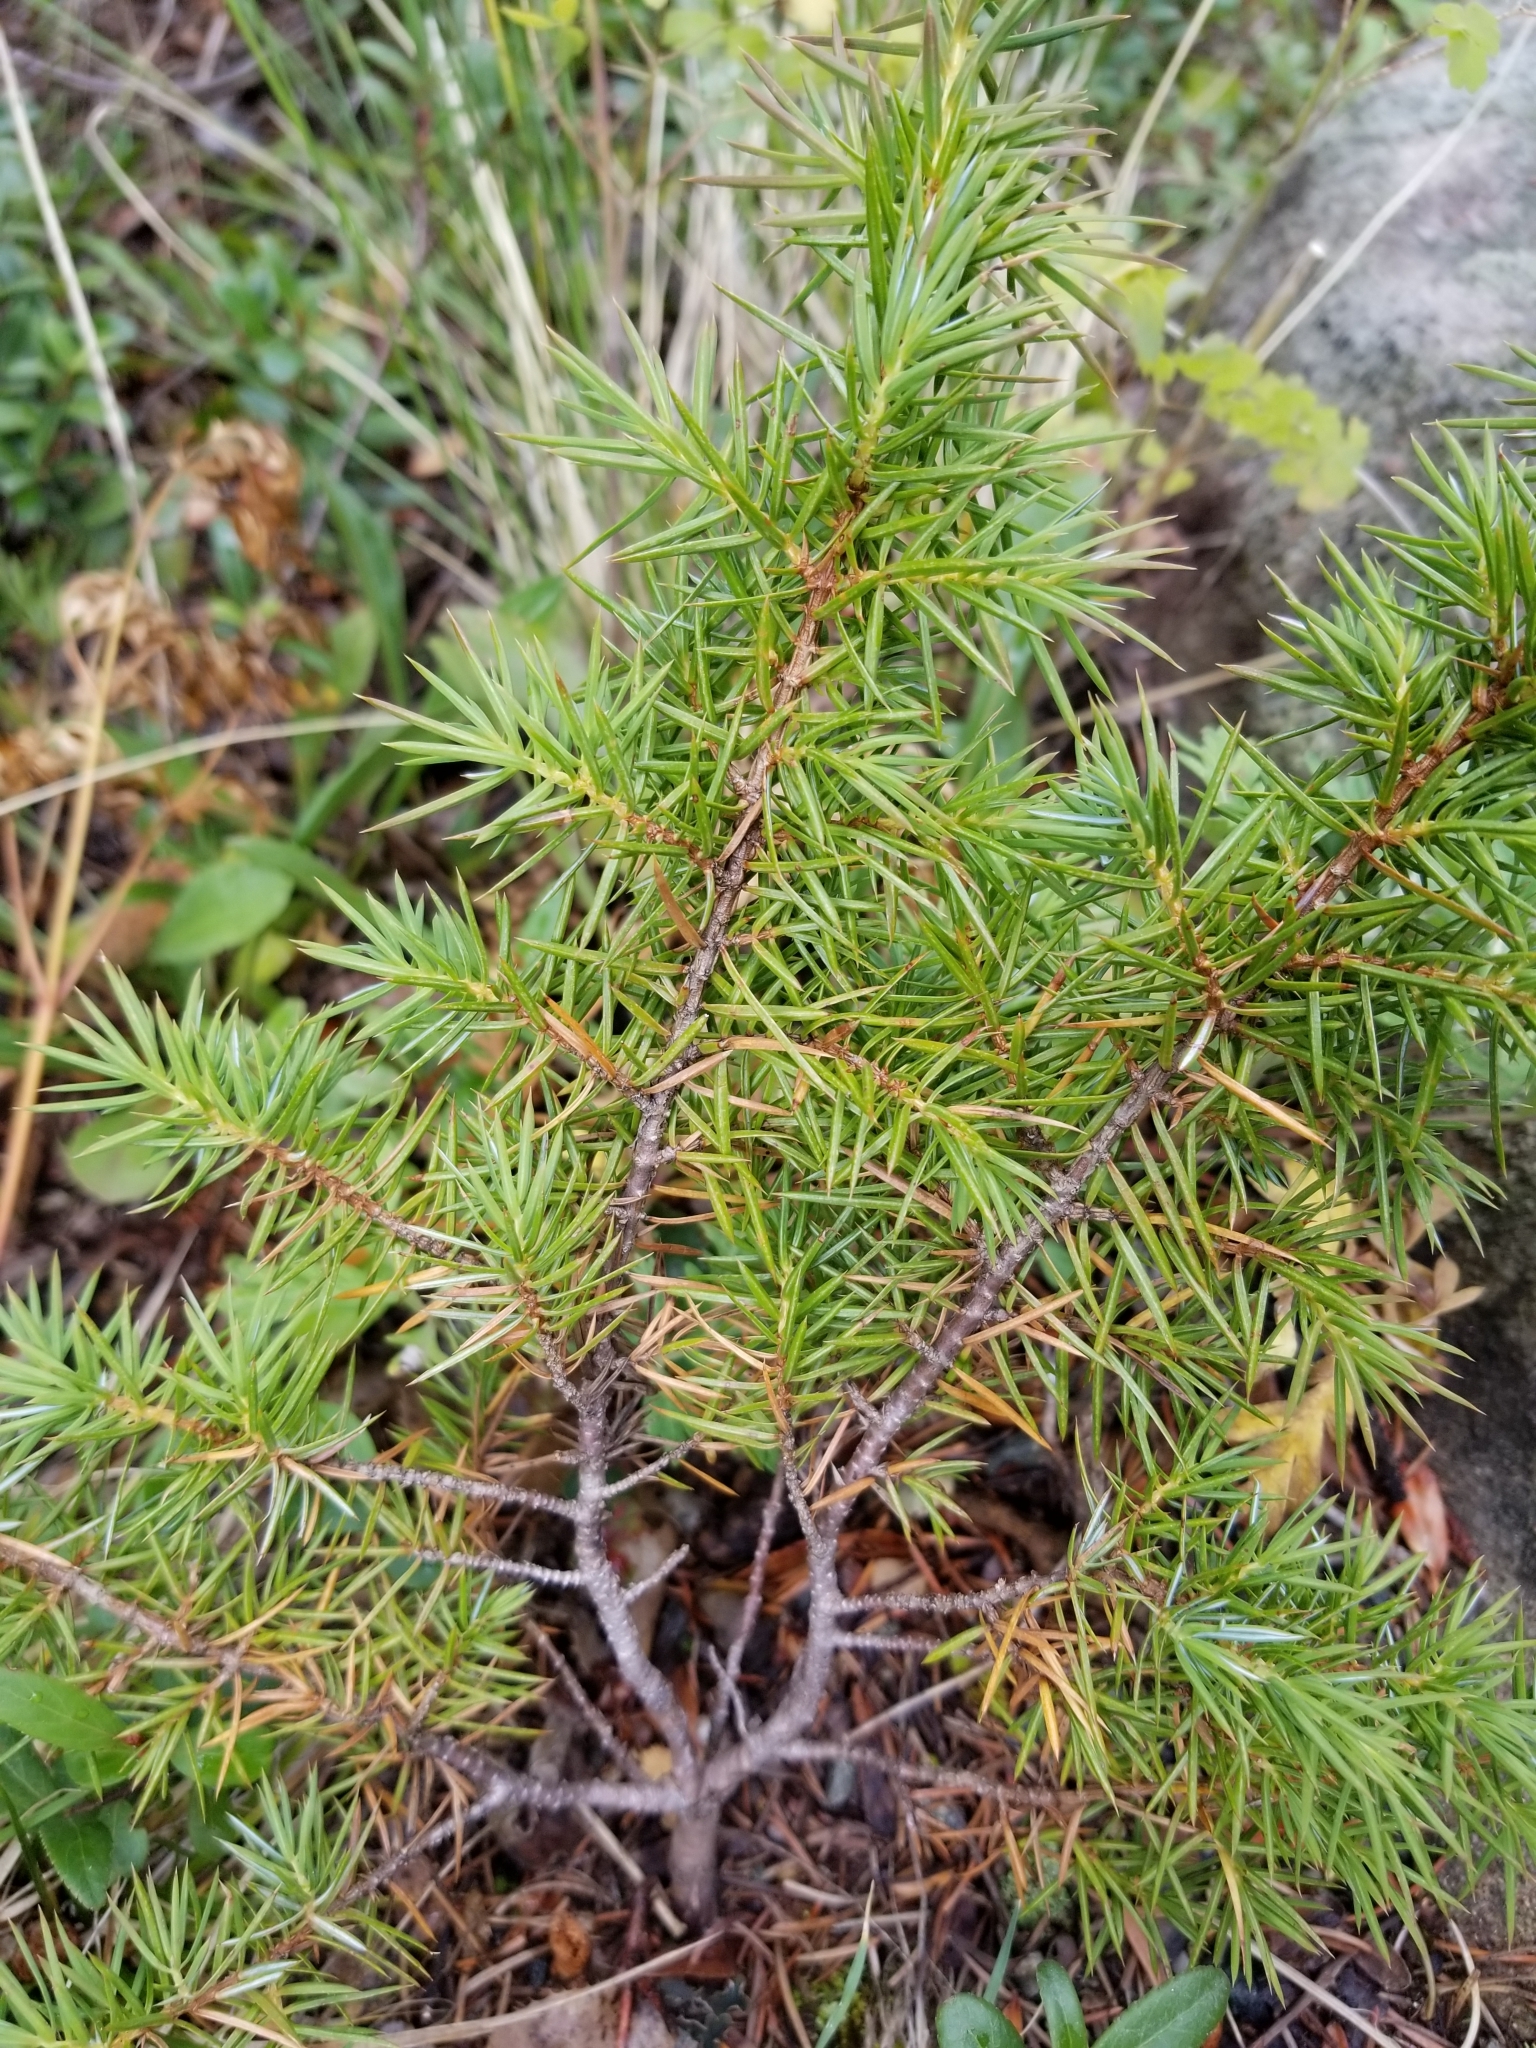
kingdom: Plantae
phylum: Tracheophyta
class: Pinopsida
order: Pinales
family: Cupressaceae
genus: Juniperus
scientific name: Juniperus communis
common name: Common juniper
